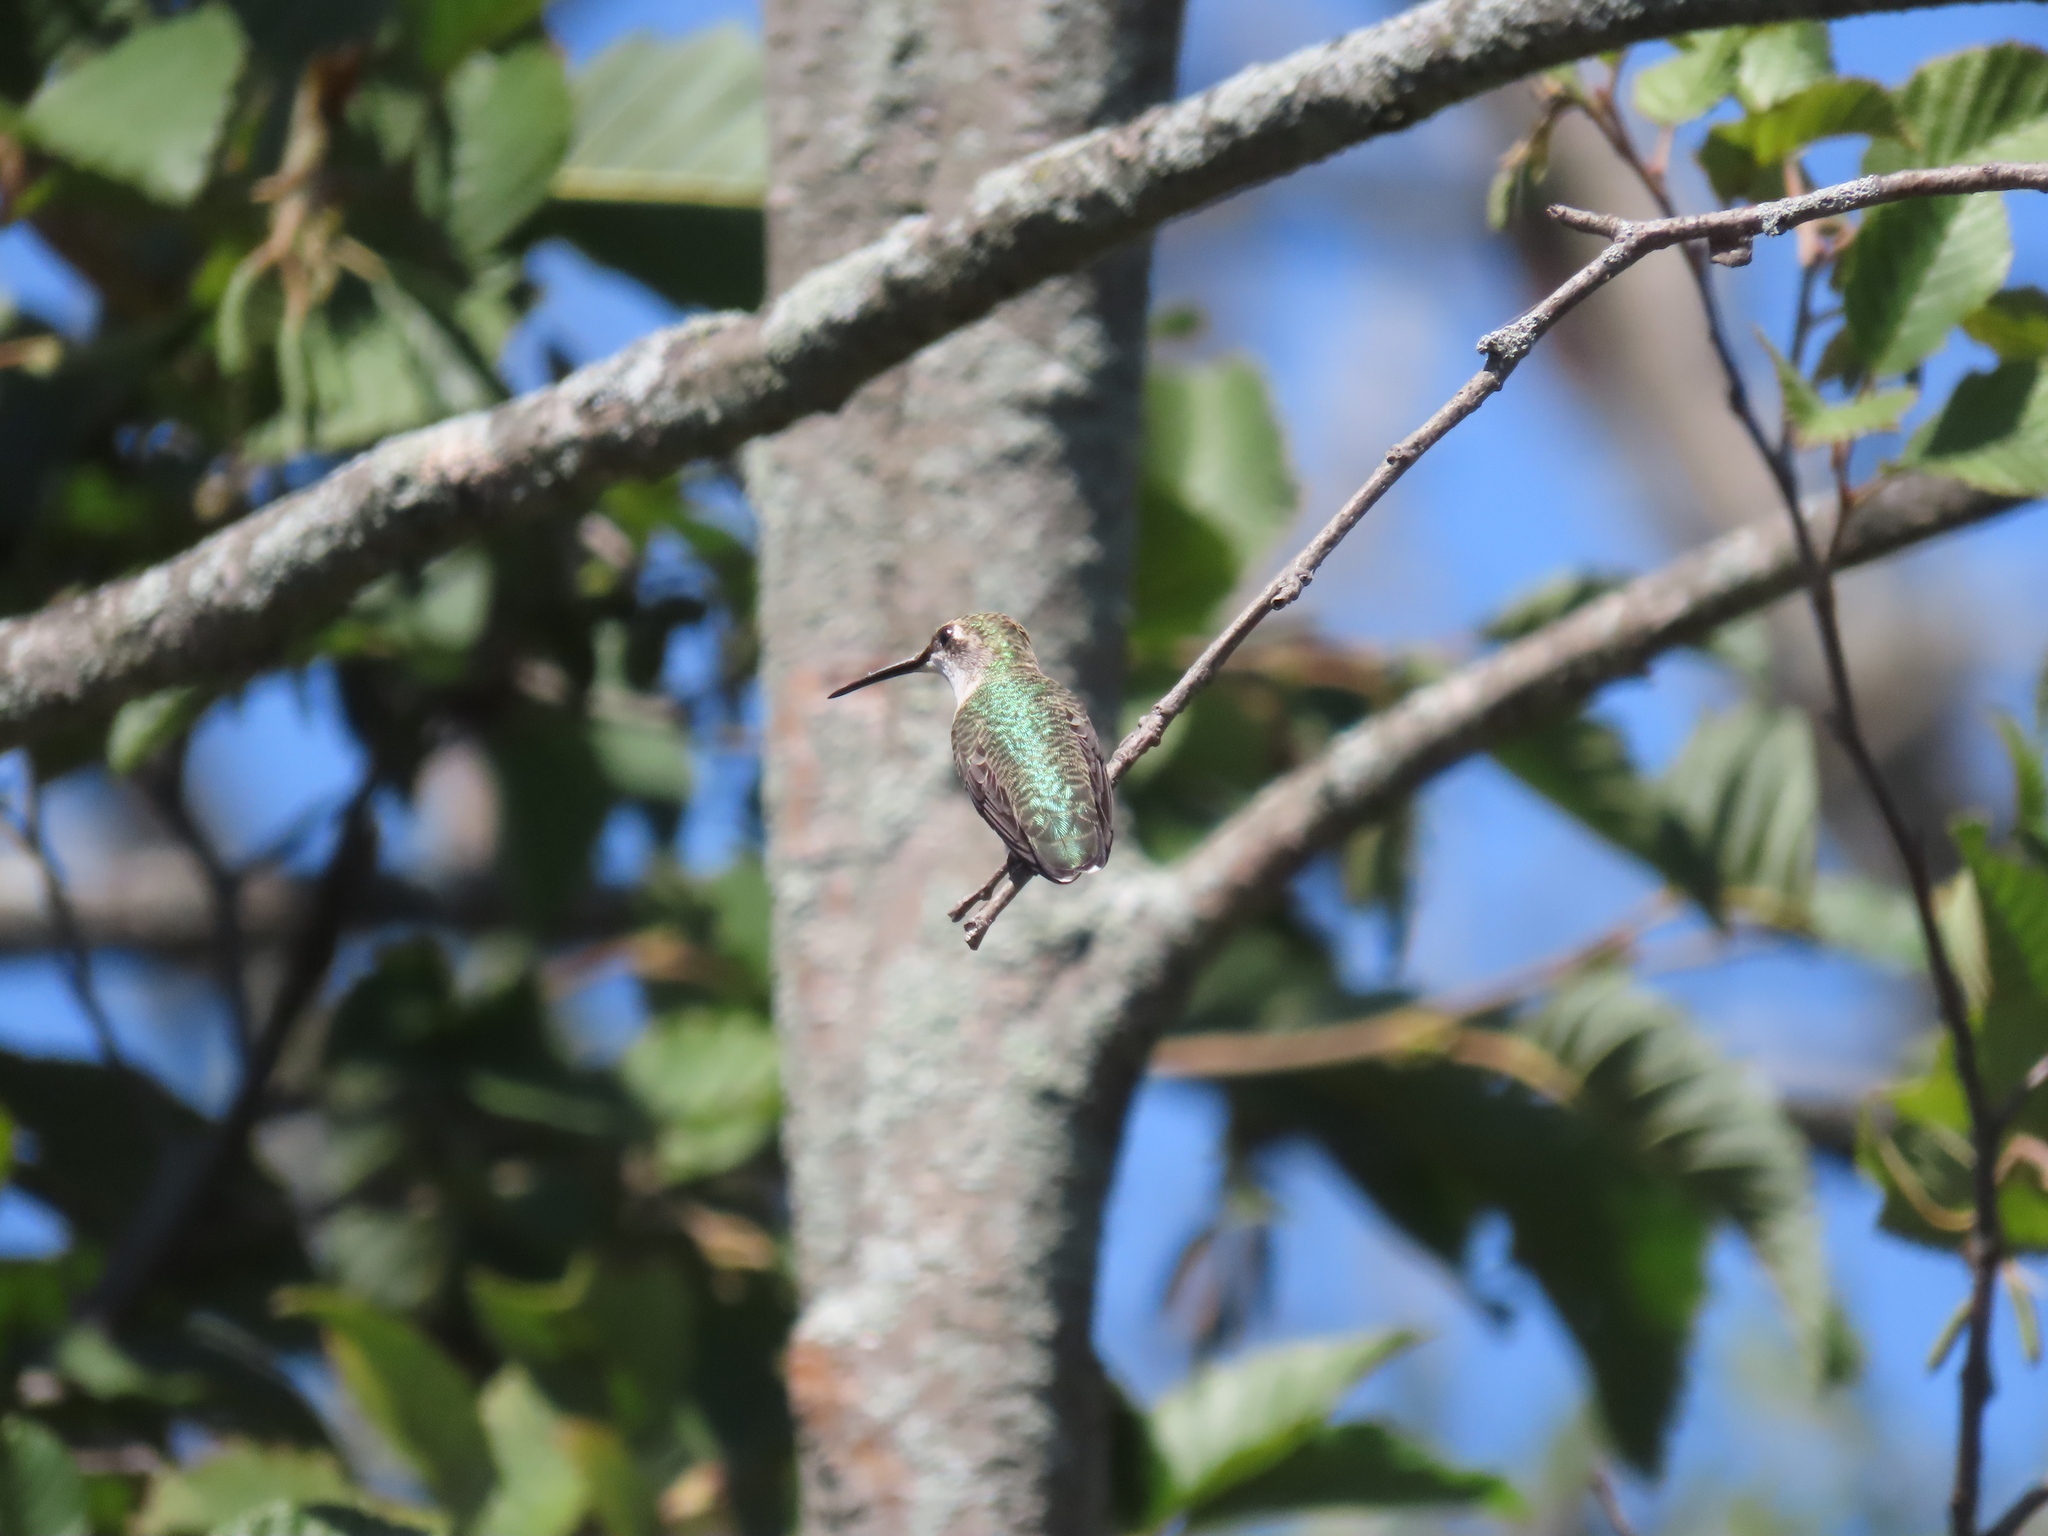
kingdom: Animalia
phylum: Chordata
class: Aves
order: Apodiformes
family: Trochilidae
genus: Archilochus
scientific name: Archilochus colubris
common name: Ruby-throated hummingbird
